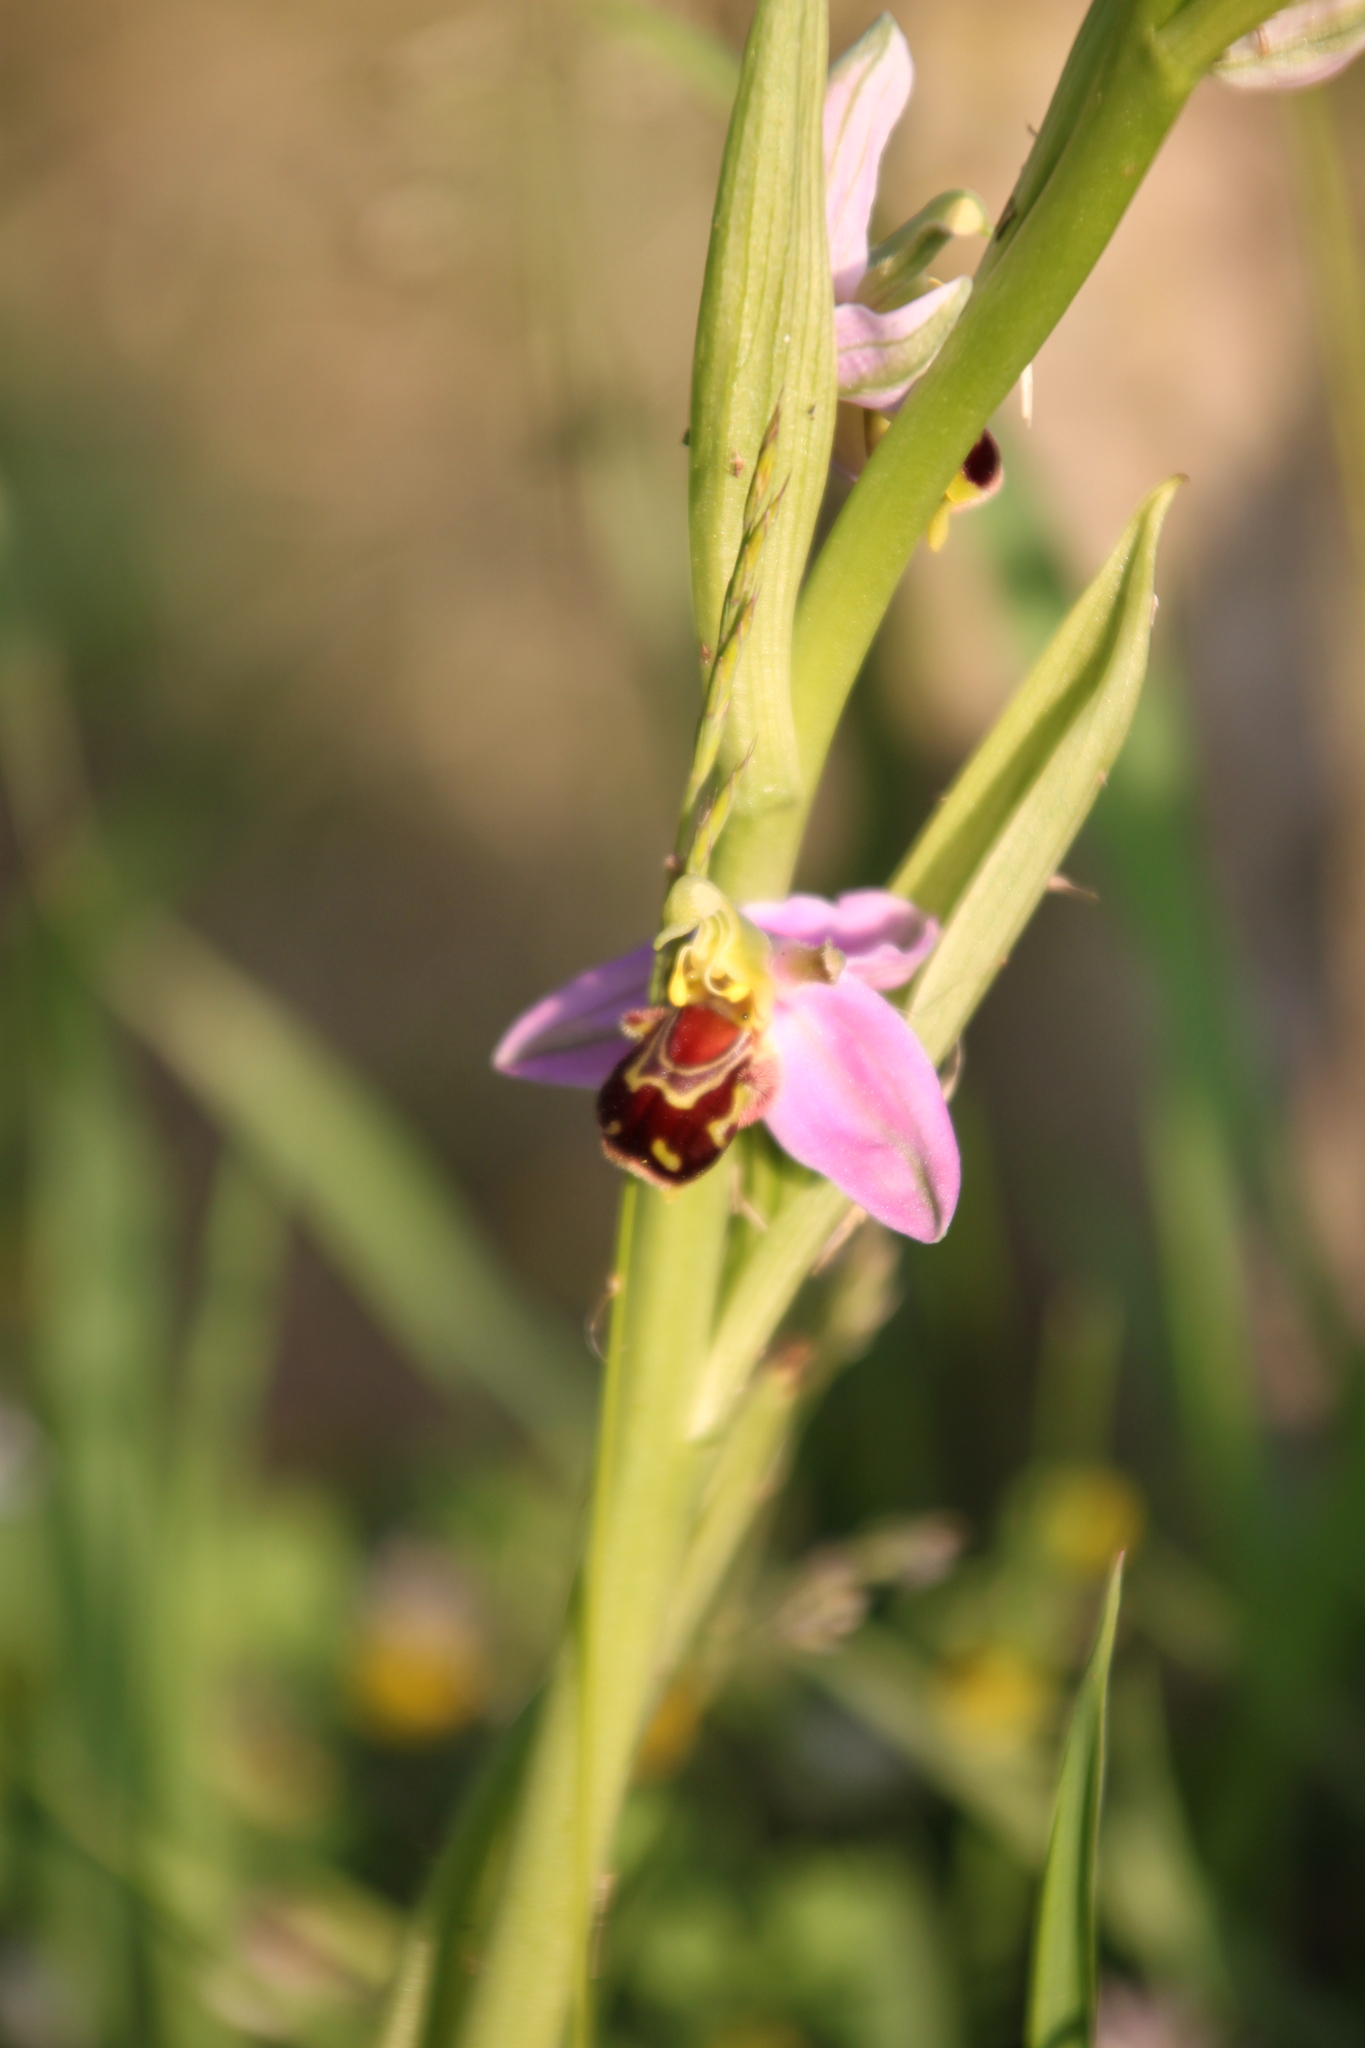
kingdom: Plantae
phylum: Tracheophyta
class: Liliopsida
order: Asparagales
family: Orchidaceae
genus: Ophrys
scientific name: Ophrys apifera
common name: Bee orchid
